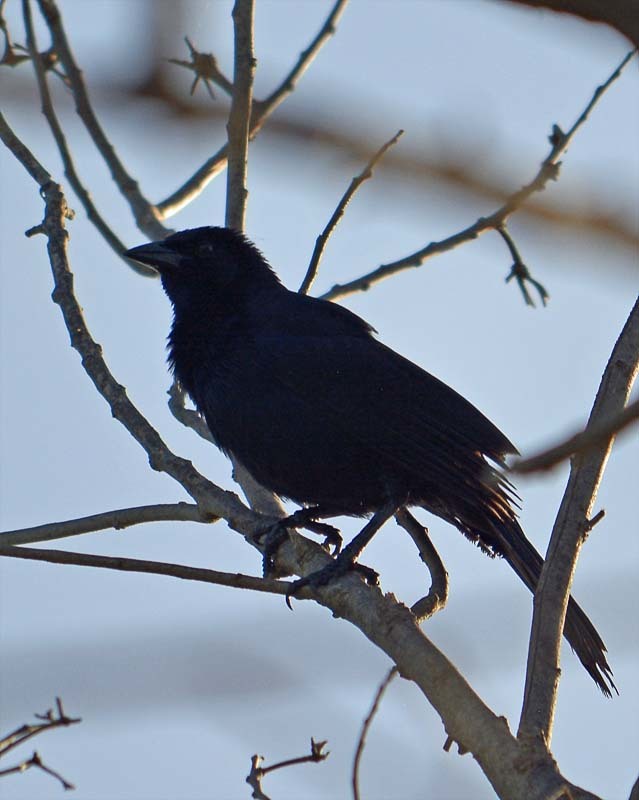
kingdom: Animalia
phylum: Chordata
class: Aves
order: Passeriformes
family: Icteridae
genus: Molothrus
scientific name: Molothrus aeneus
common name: Bronzed cowbird
